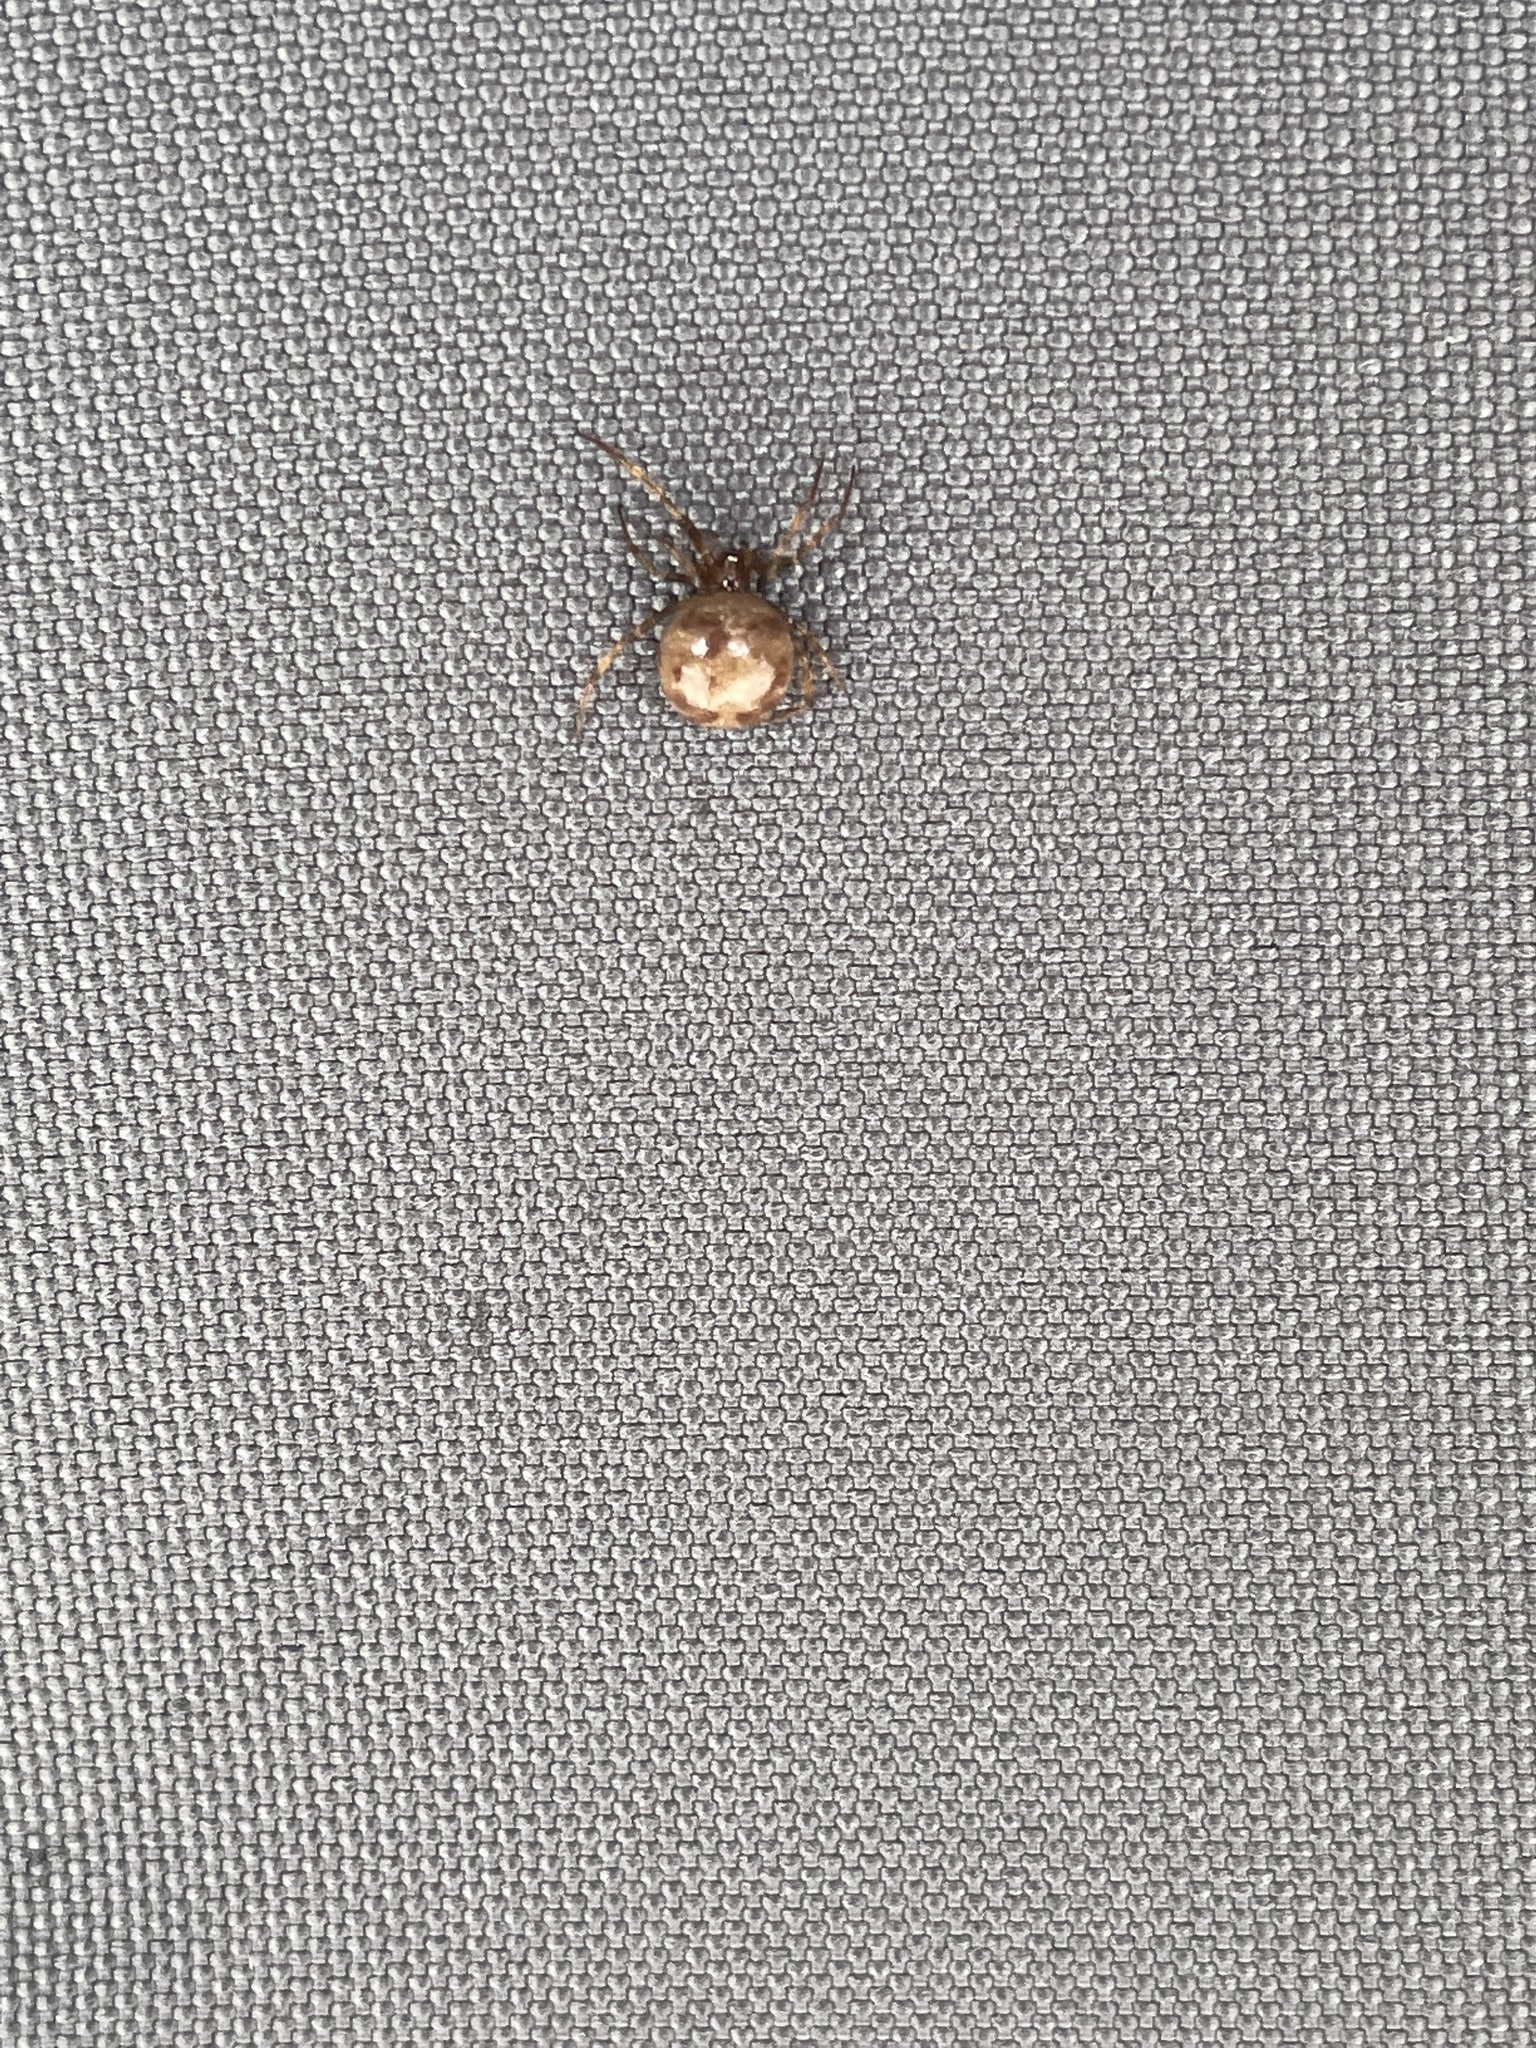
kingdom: Animalia
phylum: Arthropoda
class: Arachnida
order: Araneae
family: Theridiidae
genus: Steatoda
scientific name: Steatoda triangulosa
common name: Triangulate bud spider
